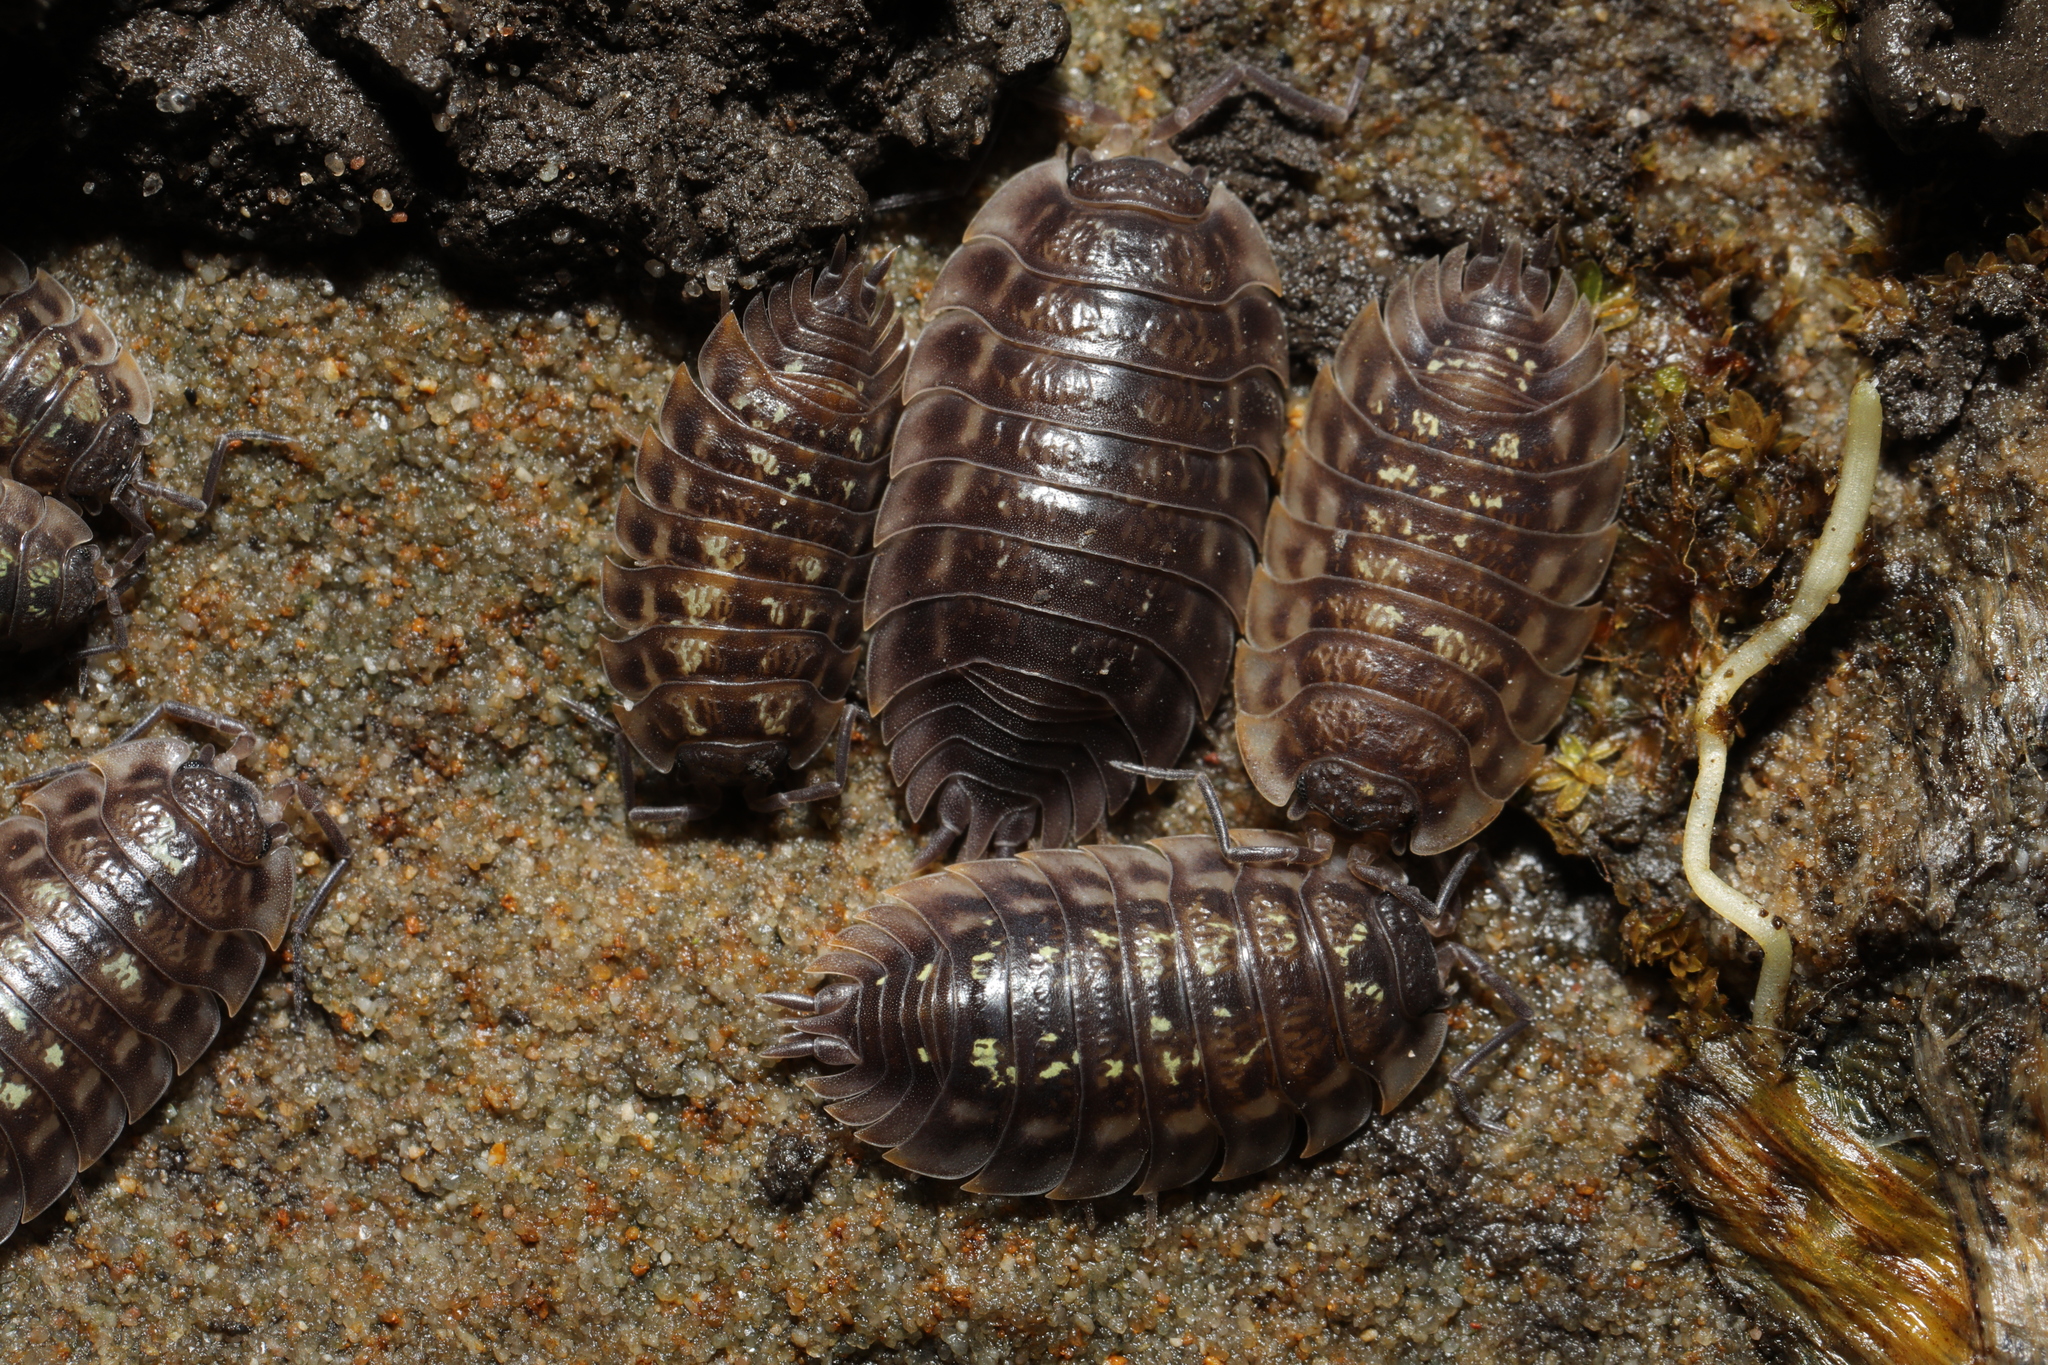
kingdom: Animalia
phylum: Arthropoda
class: Malacostraca
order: Isopoda
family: Oniscidae
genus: Oniscus
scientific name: Oniscus asellus
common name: Common shiny woodlouse
